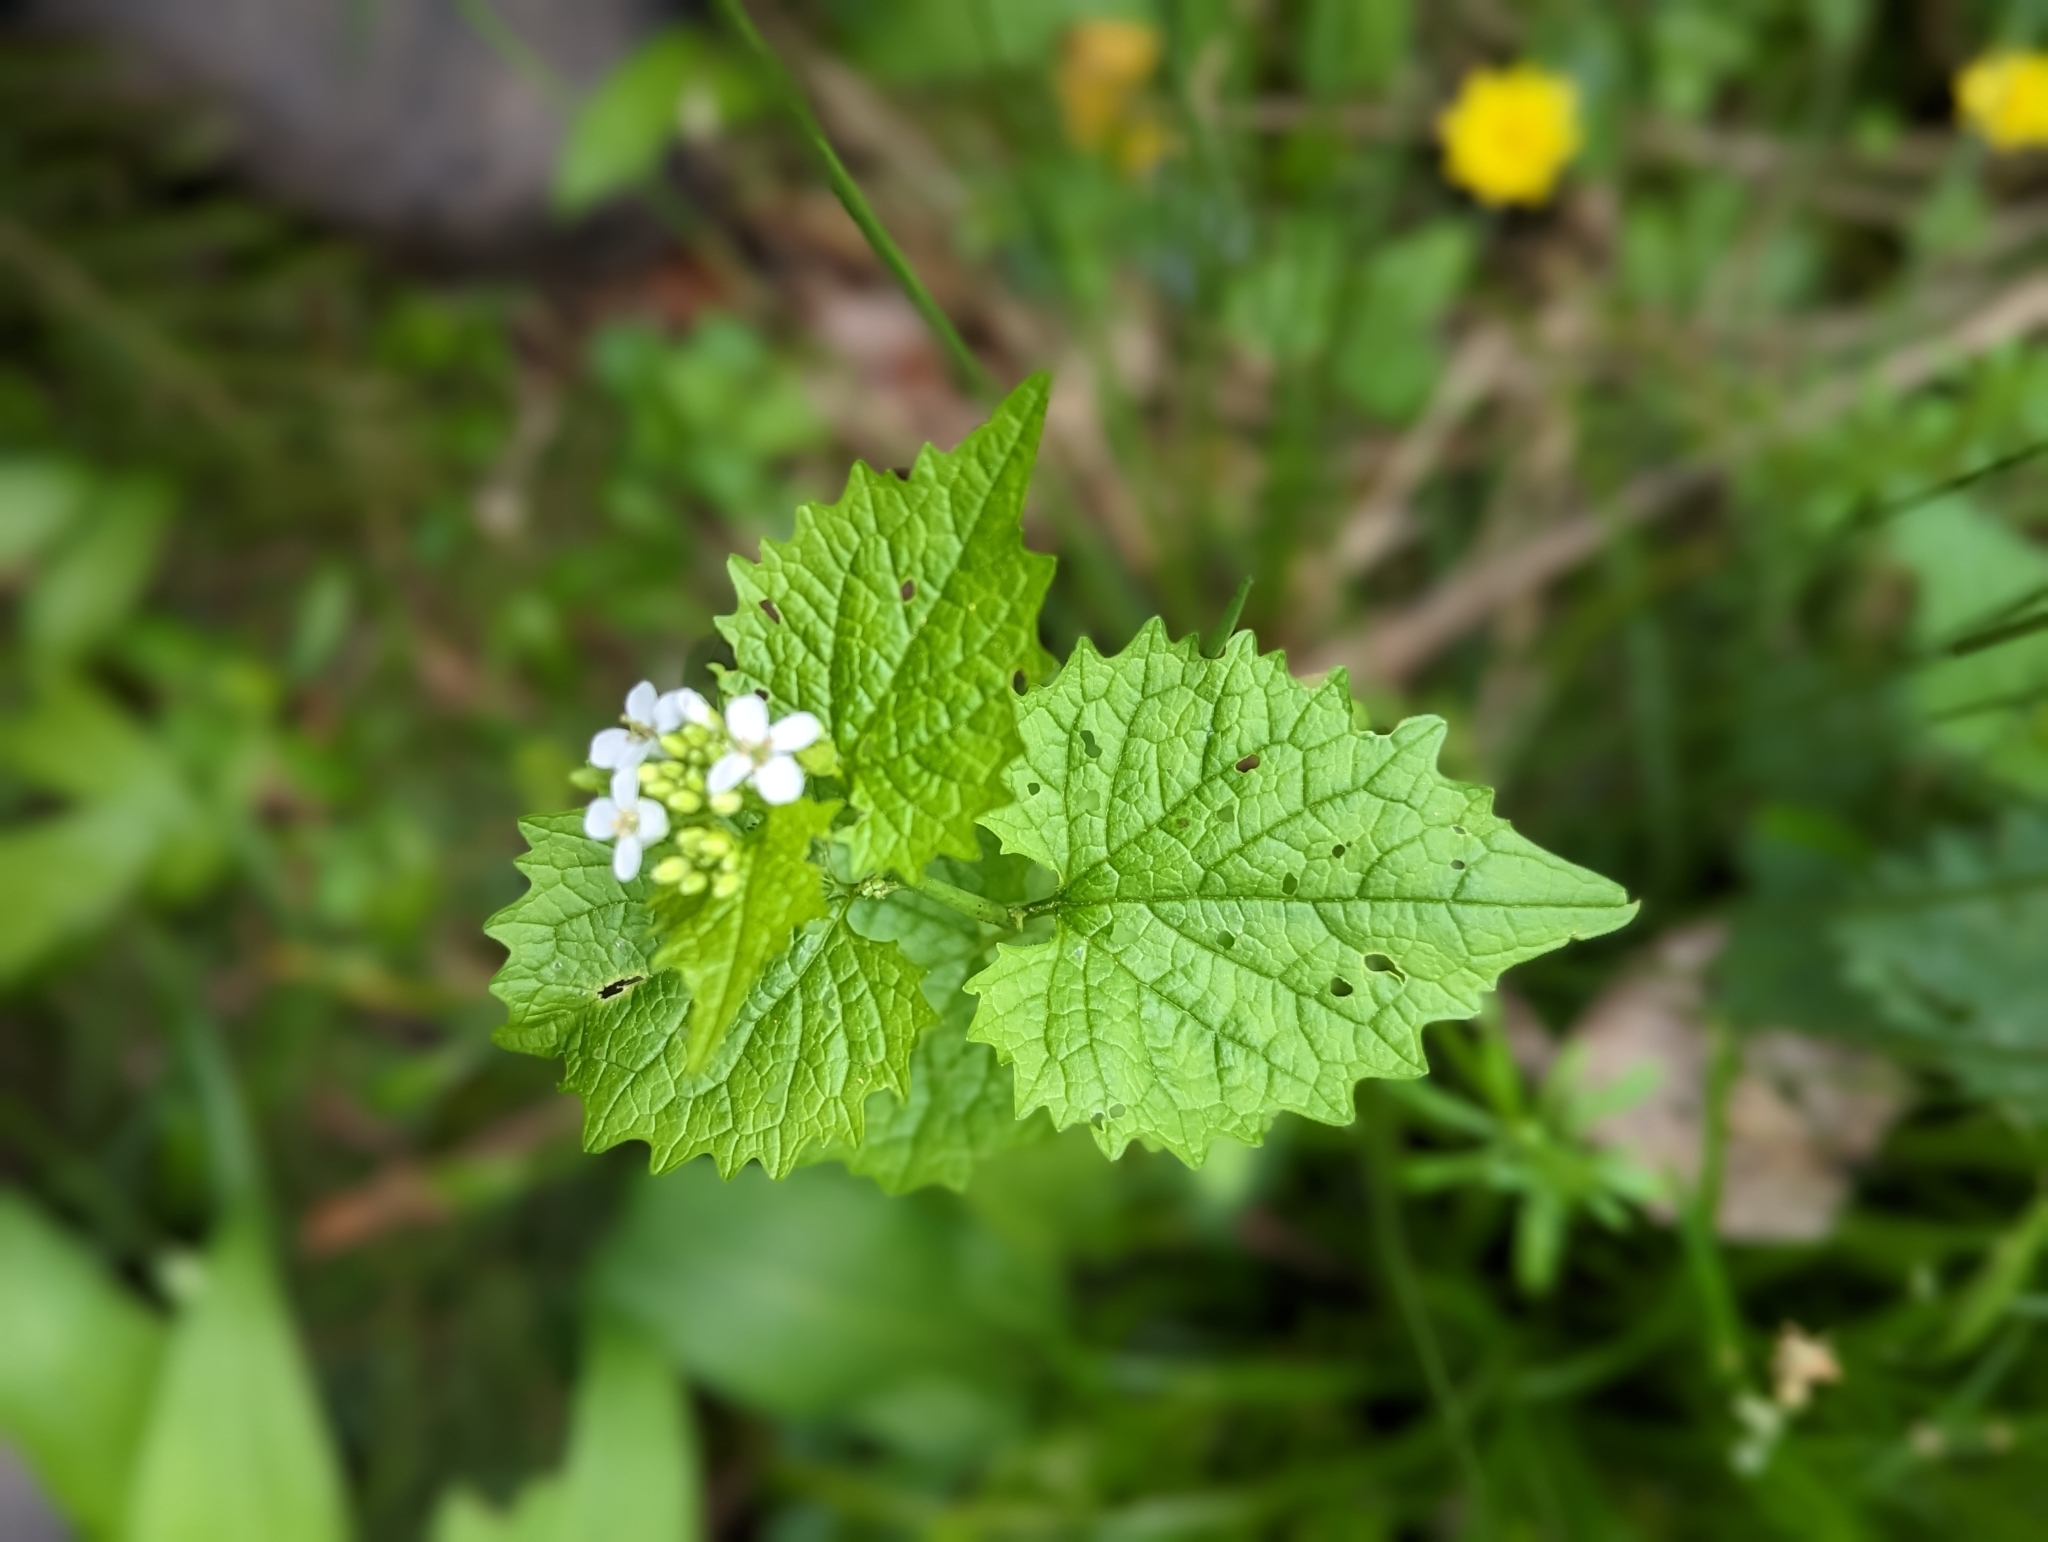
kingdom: Plantae
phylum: Tracheophyta
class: Magnoliopsida
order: Brassicales
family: Brassicaceae
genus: Alliaria
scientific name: Alliaria petiolata
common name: Garlic mustard
